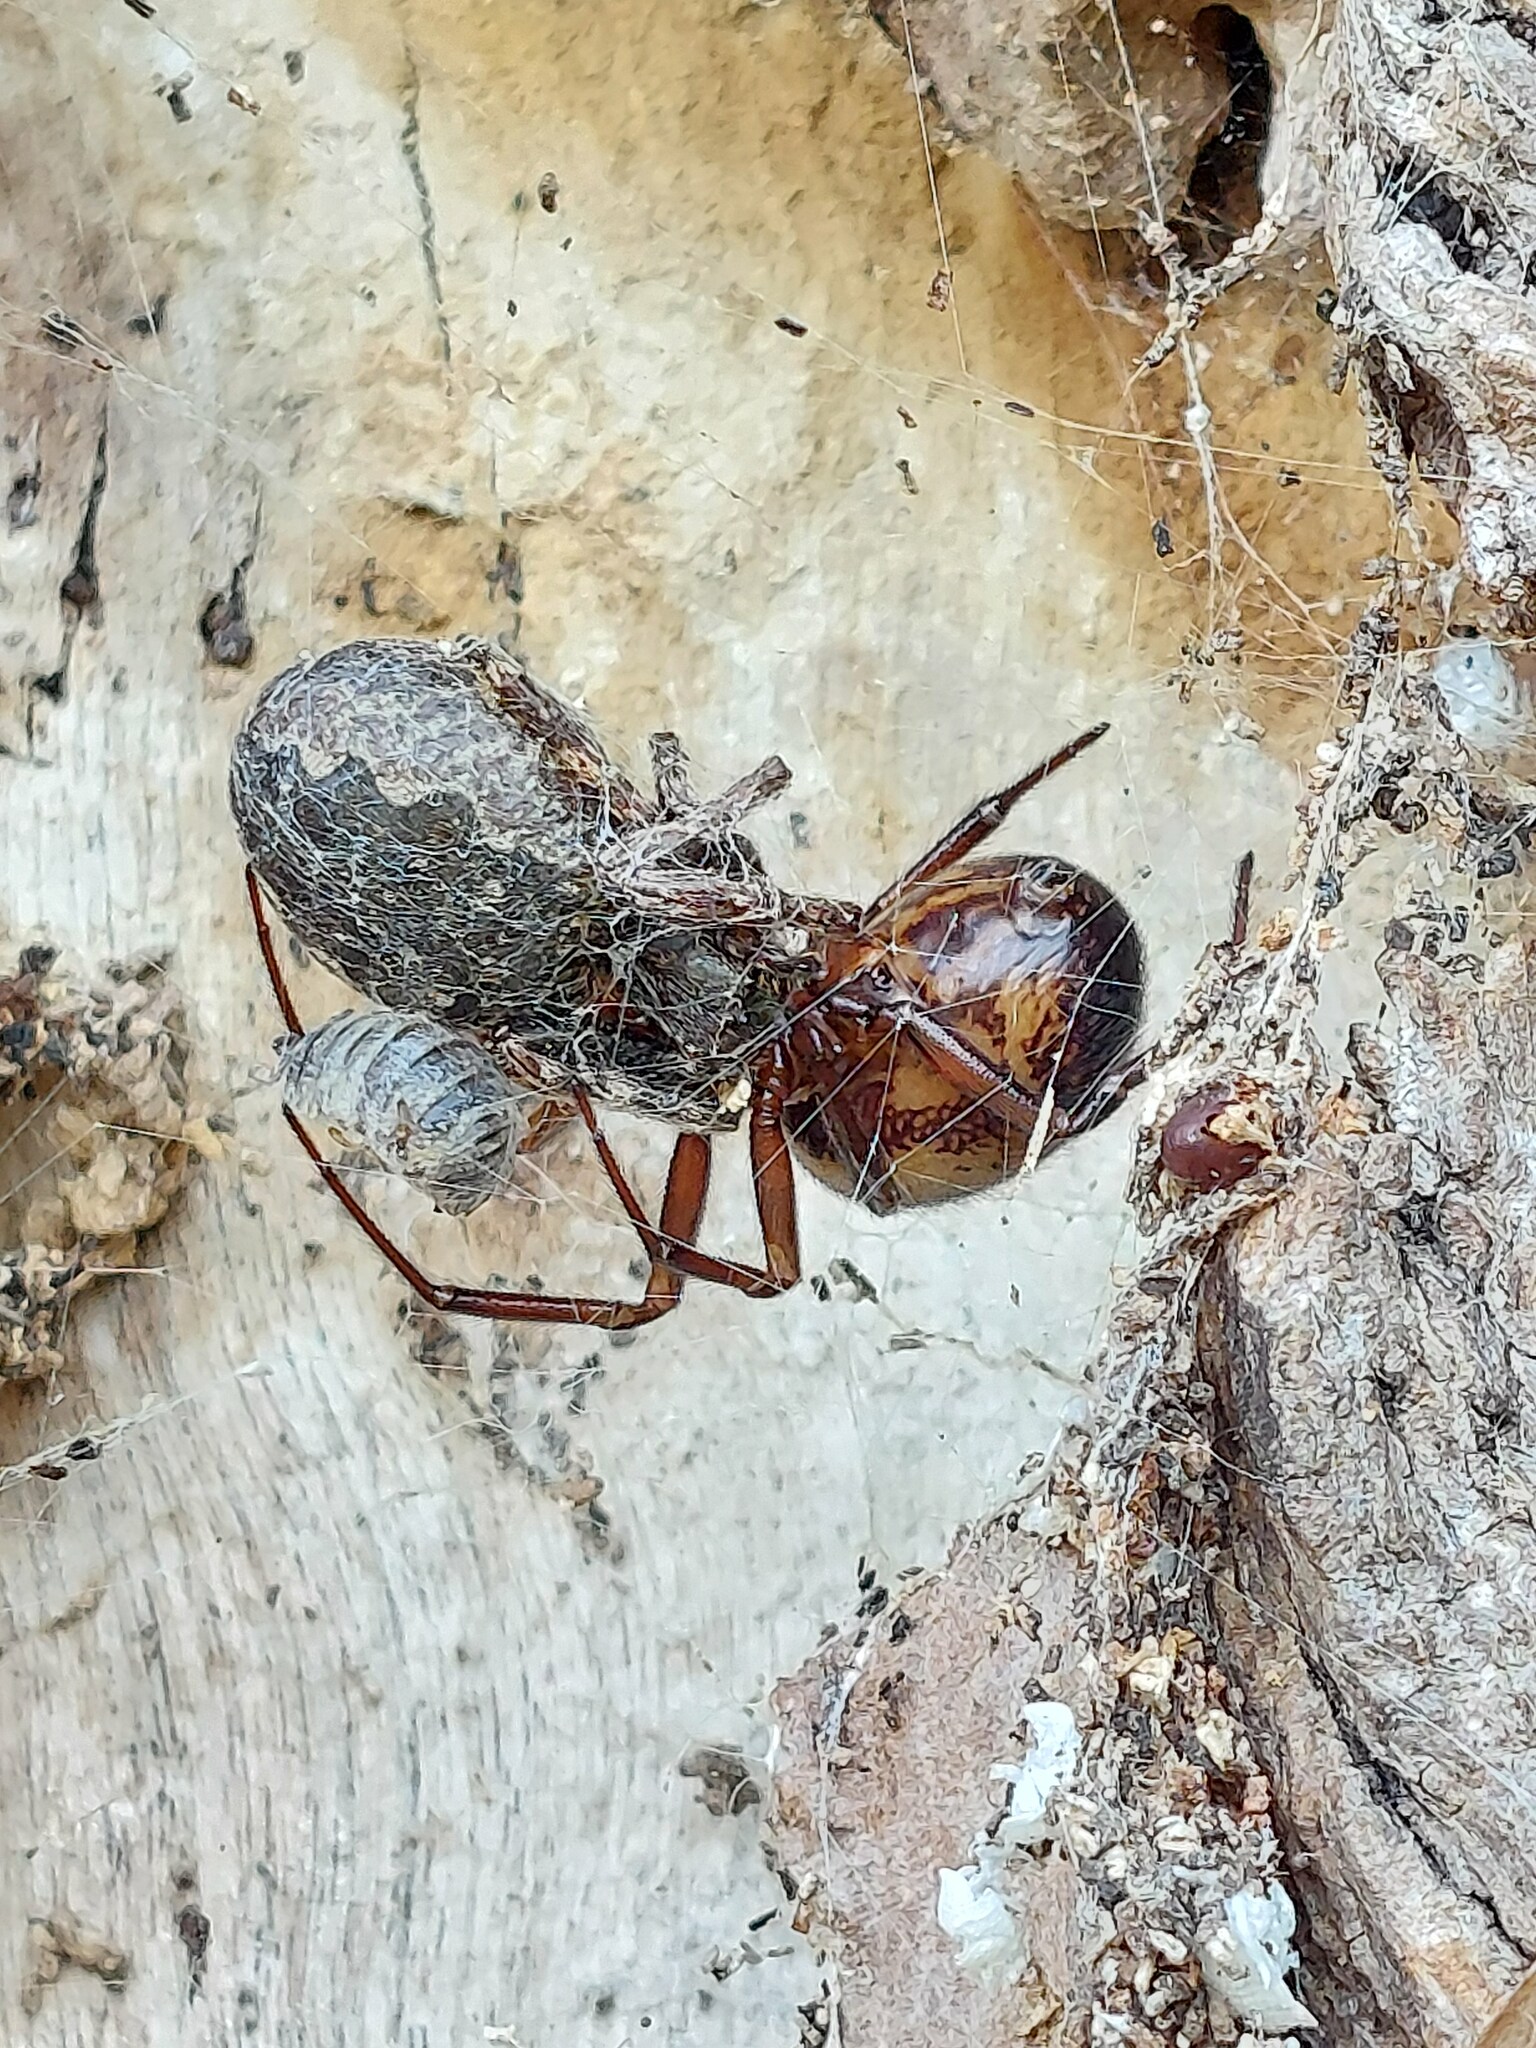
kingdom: Animalia
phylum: Arthropoda
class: Arachnida
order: Araneae
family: Araneidae
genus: Nuctenea
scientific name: Nuctenea umbratica
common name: Toad spider
